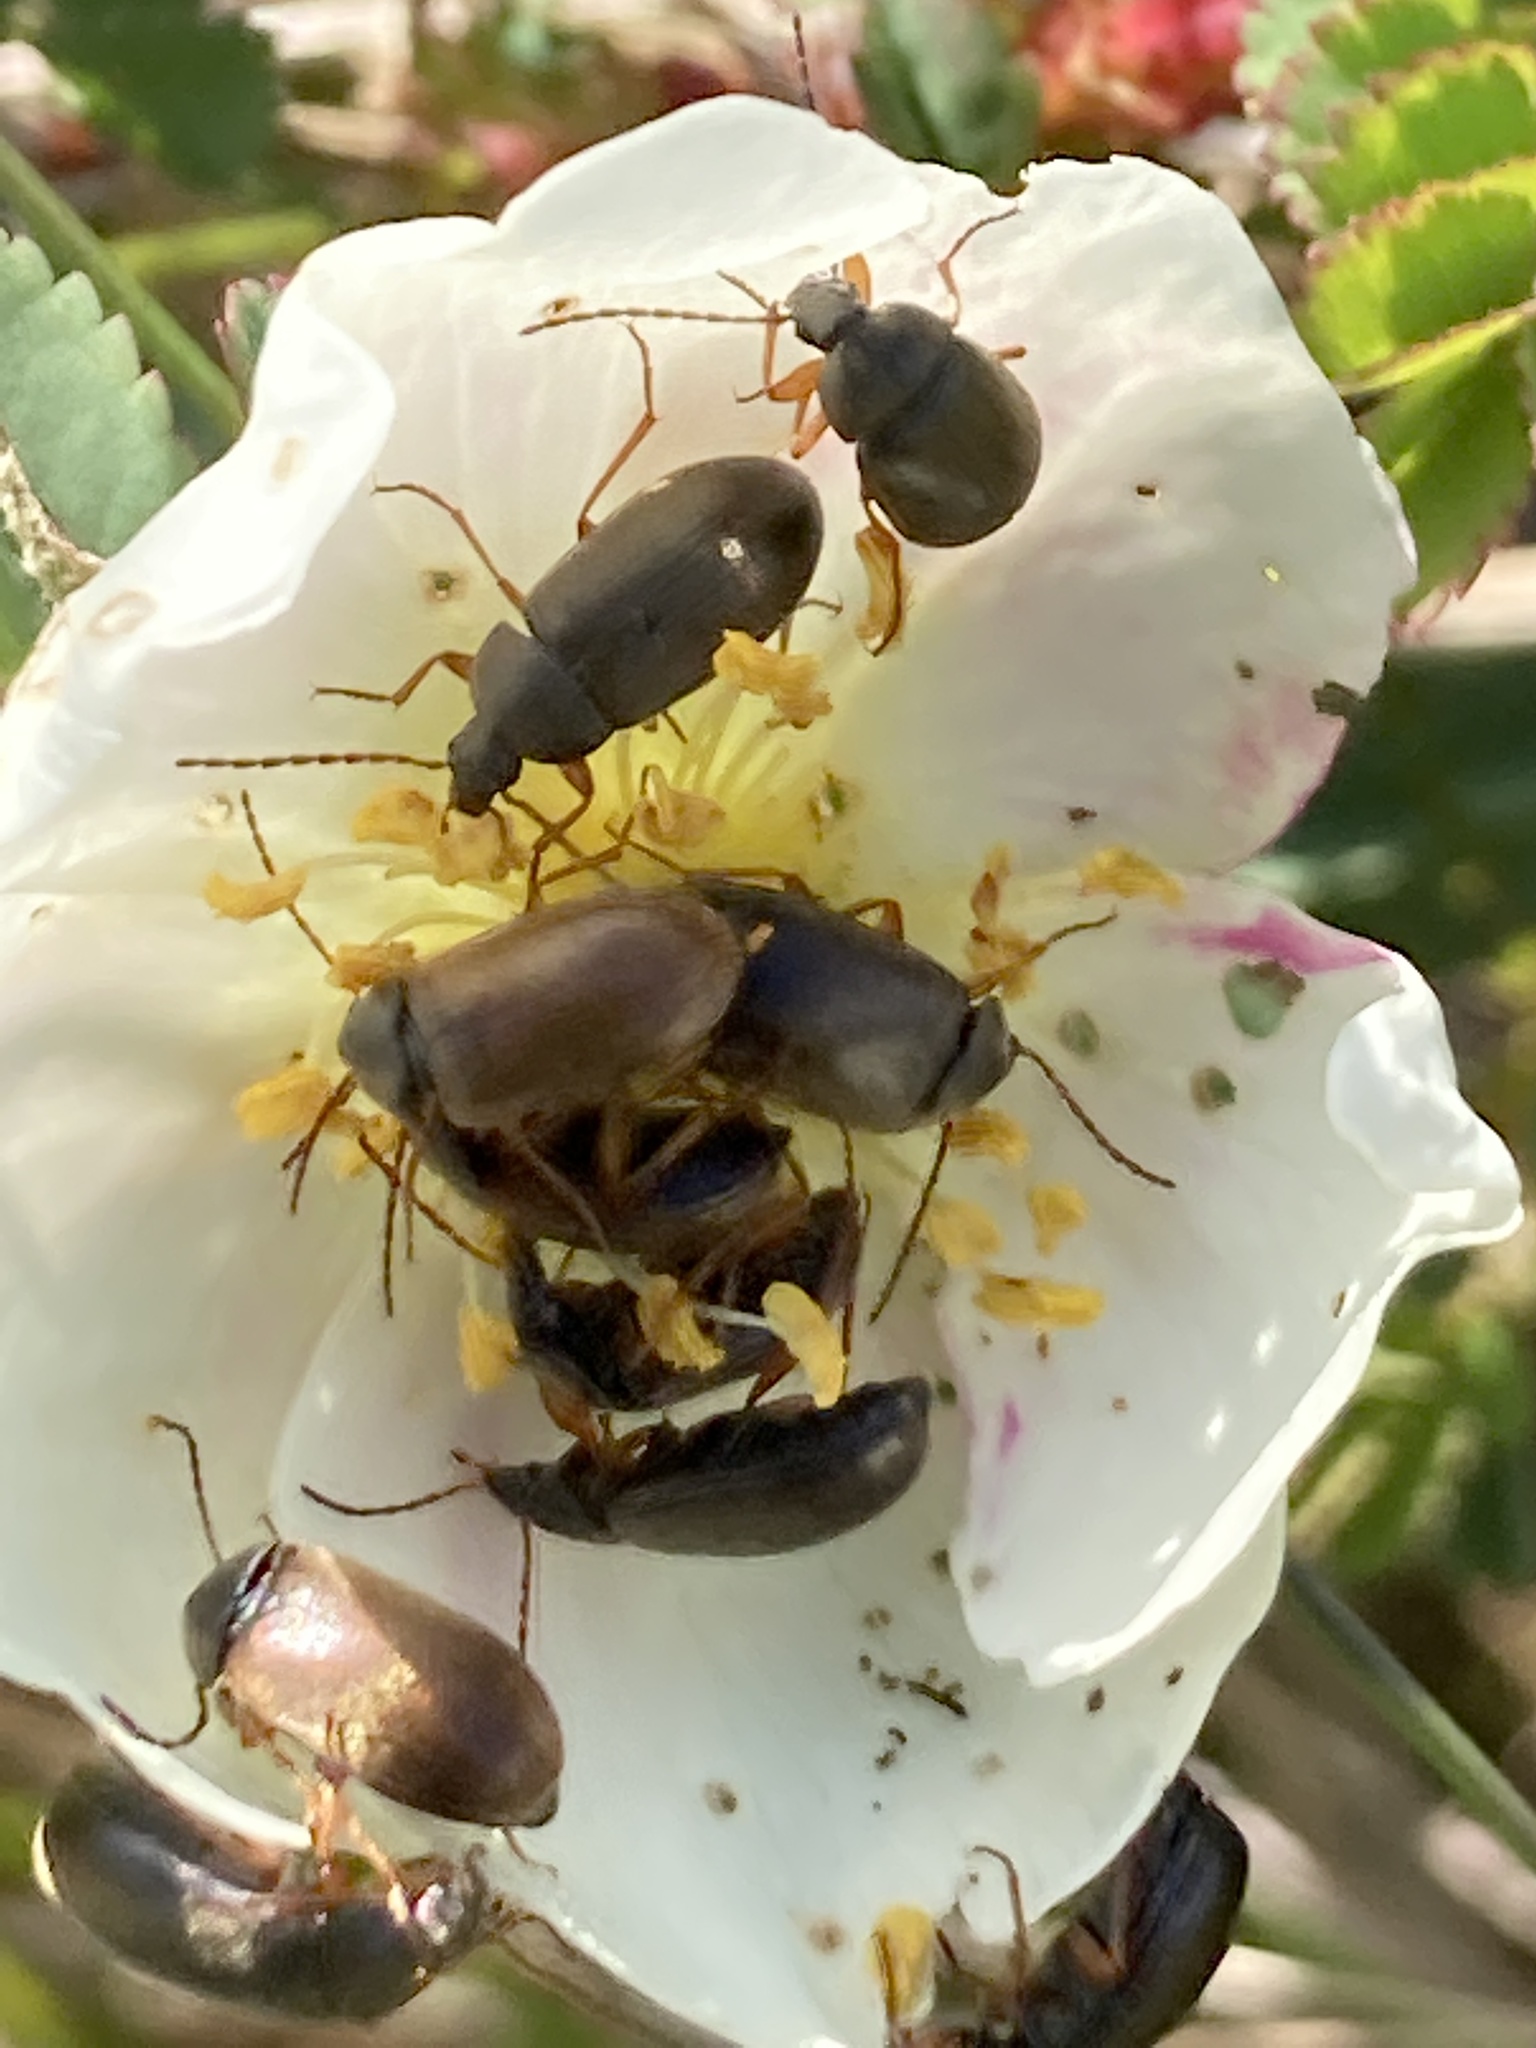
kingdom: Animalia
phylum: Arthropoda
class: Insecta
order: Coleoptera
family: Tenebrionidae
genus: Isomira
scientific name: Isomira murina
